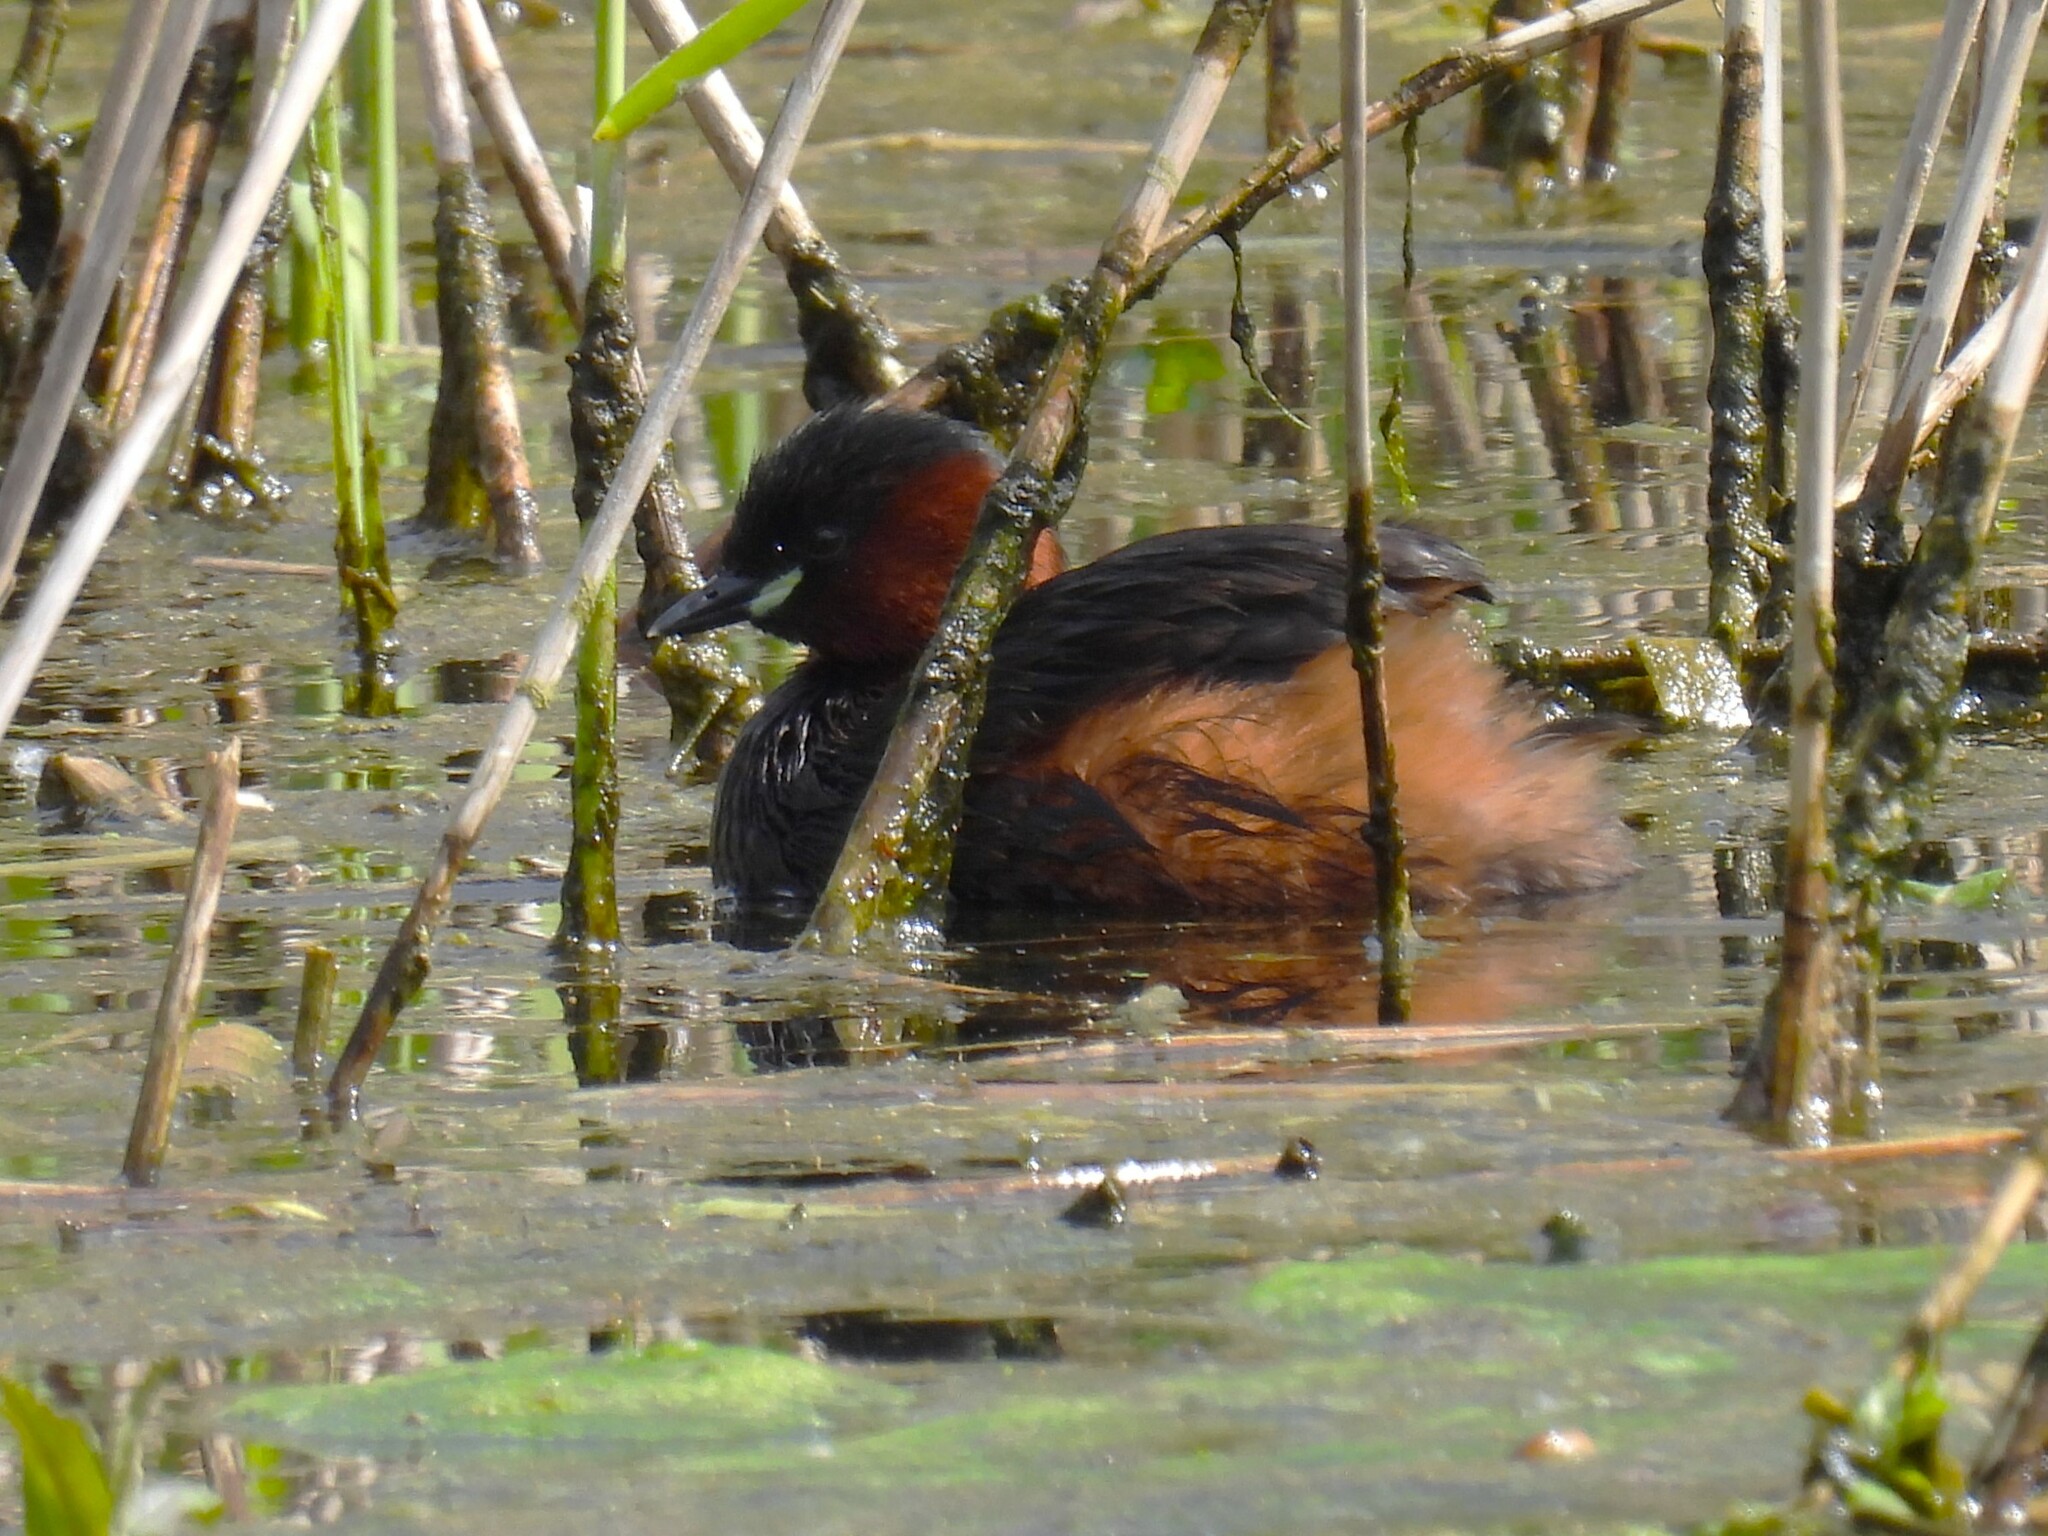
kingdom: Animalia
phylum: Chordata
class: Aves
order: Podicipediformes
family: Podicipedidae
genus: Tachybaptus
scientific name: Tachybaptus ruficollis
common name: Little grebe
